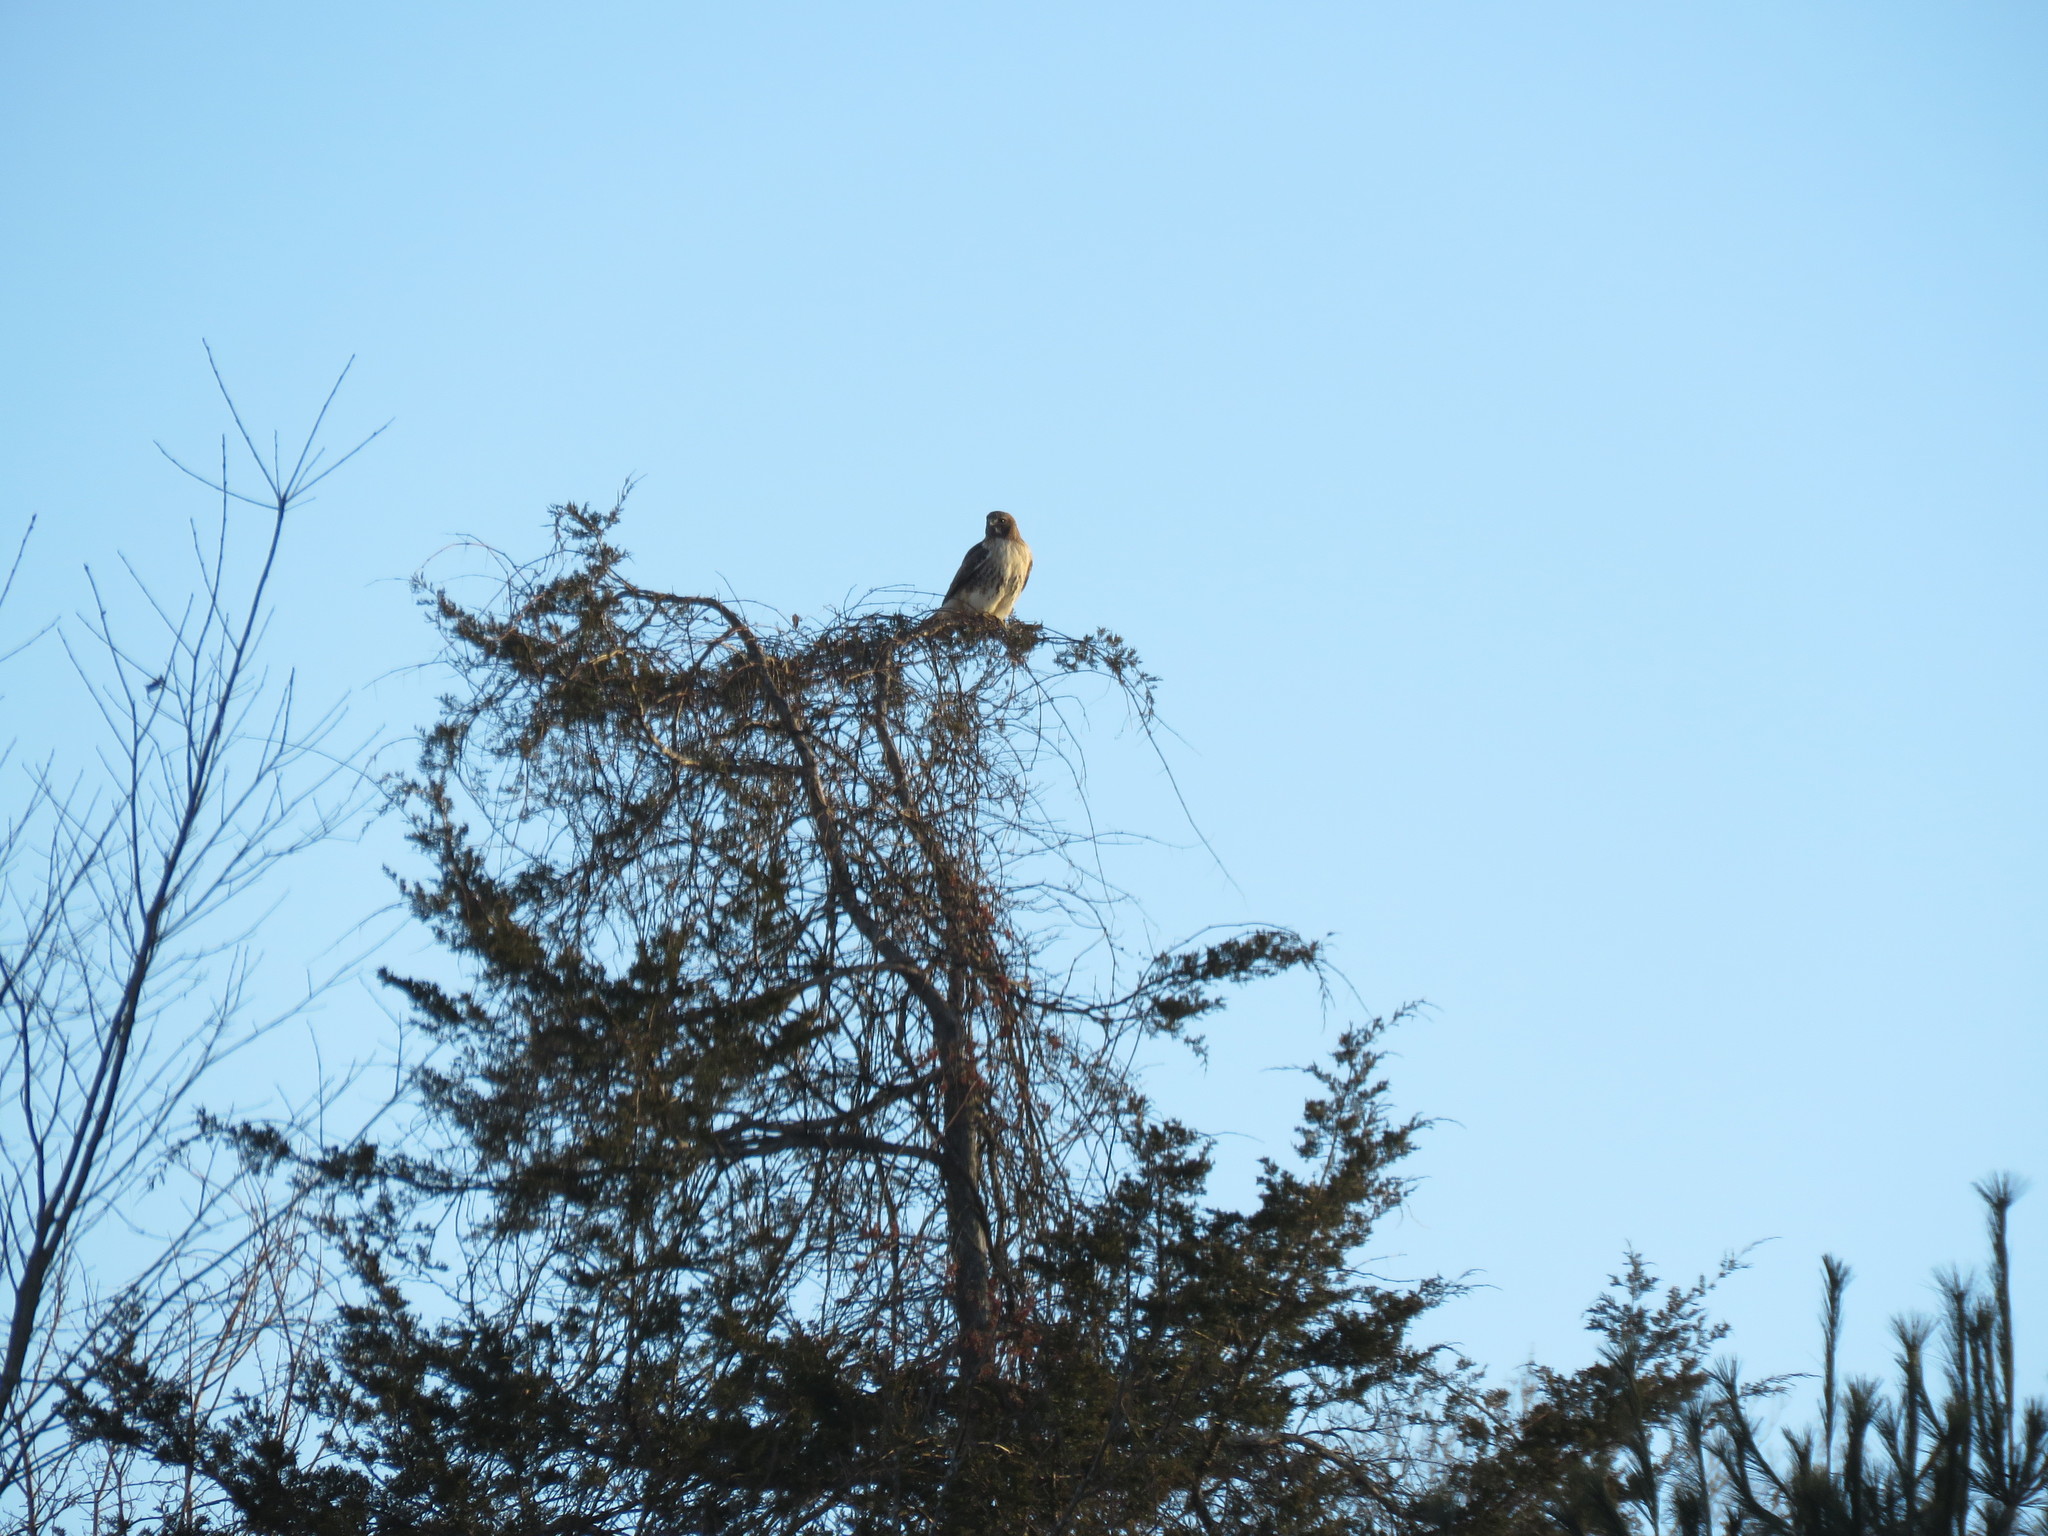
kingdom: Animalia
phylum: Chordata
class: Aves
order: Accipitriformes
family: Accipitridae
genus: Buteo
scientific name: Buteo jamaicensis
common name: Red-tailed hawk
